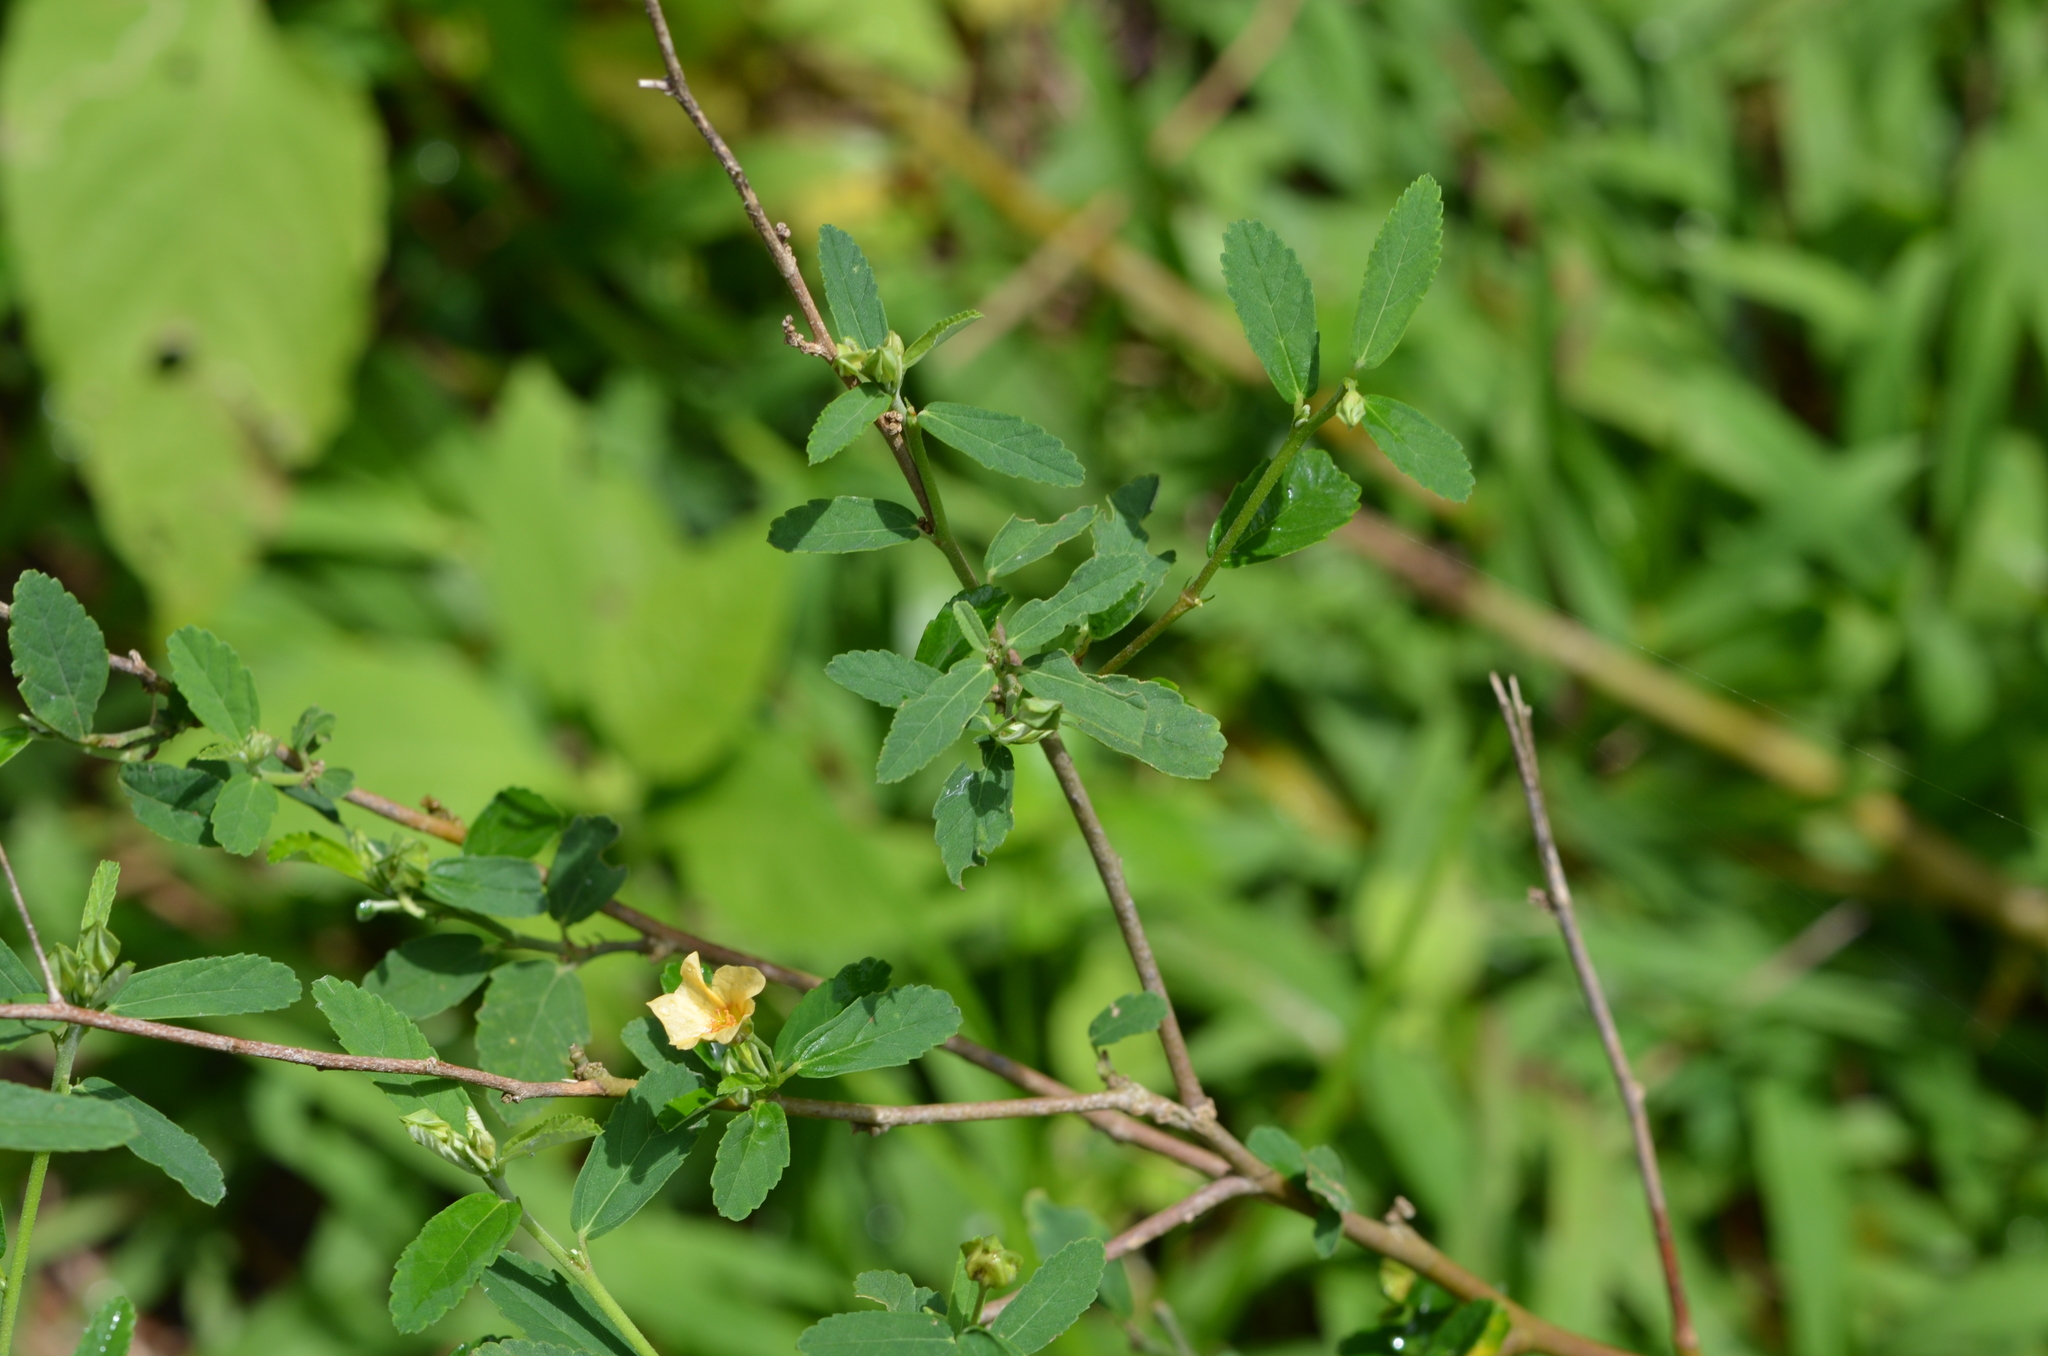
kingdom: Plantae
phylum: Tracheophyta
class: Magnoliopsida
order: Malvales
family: Malvaceae
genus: Sida
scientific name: Sida rhombifolia
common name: Queensland-hemp
